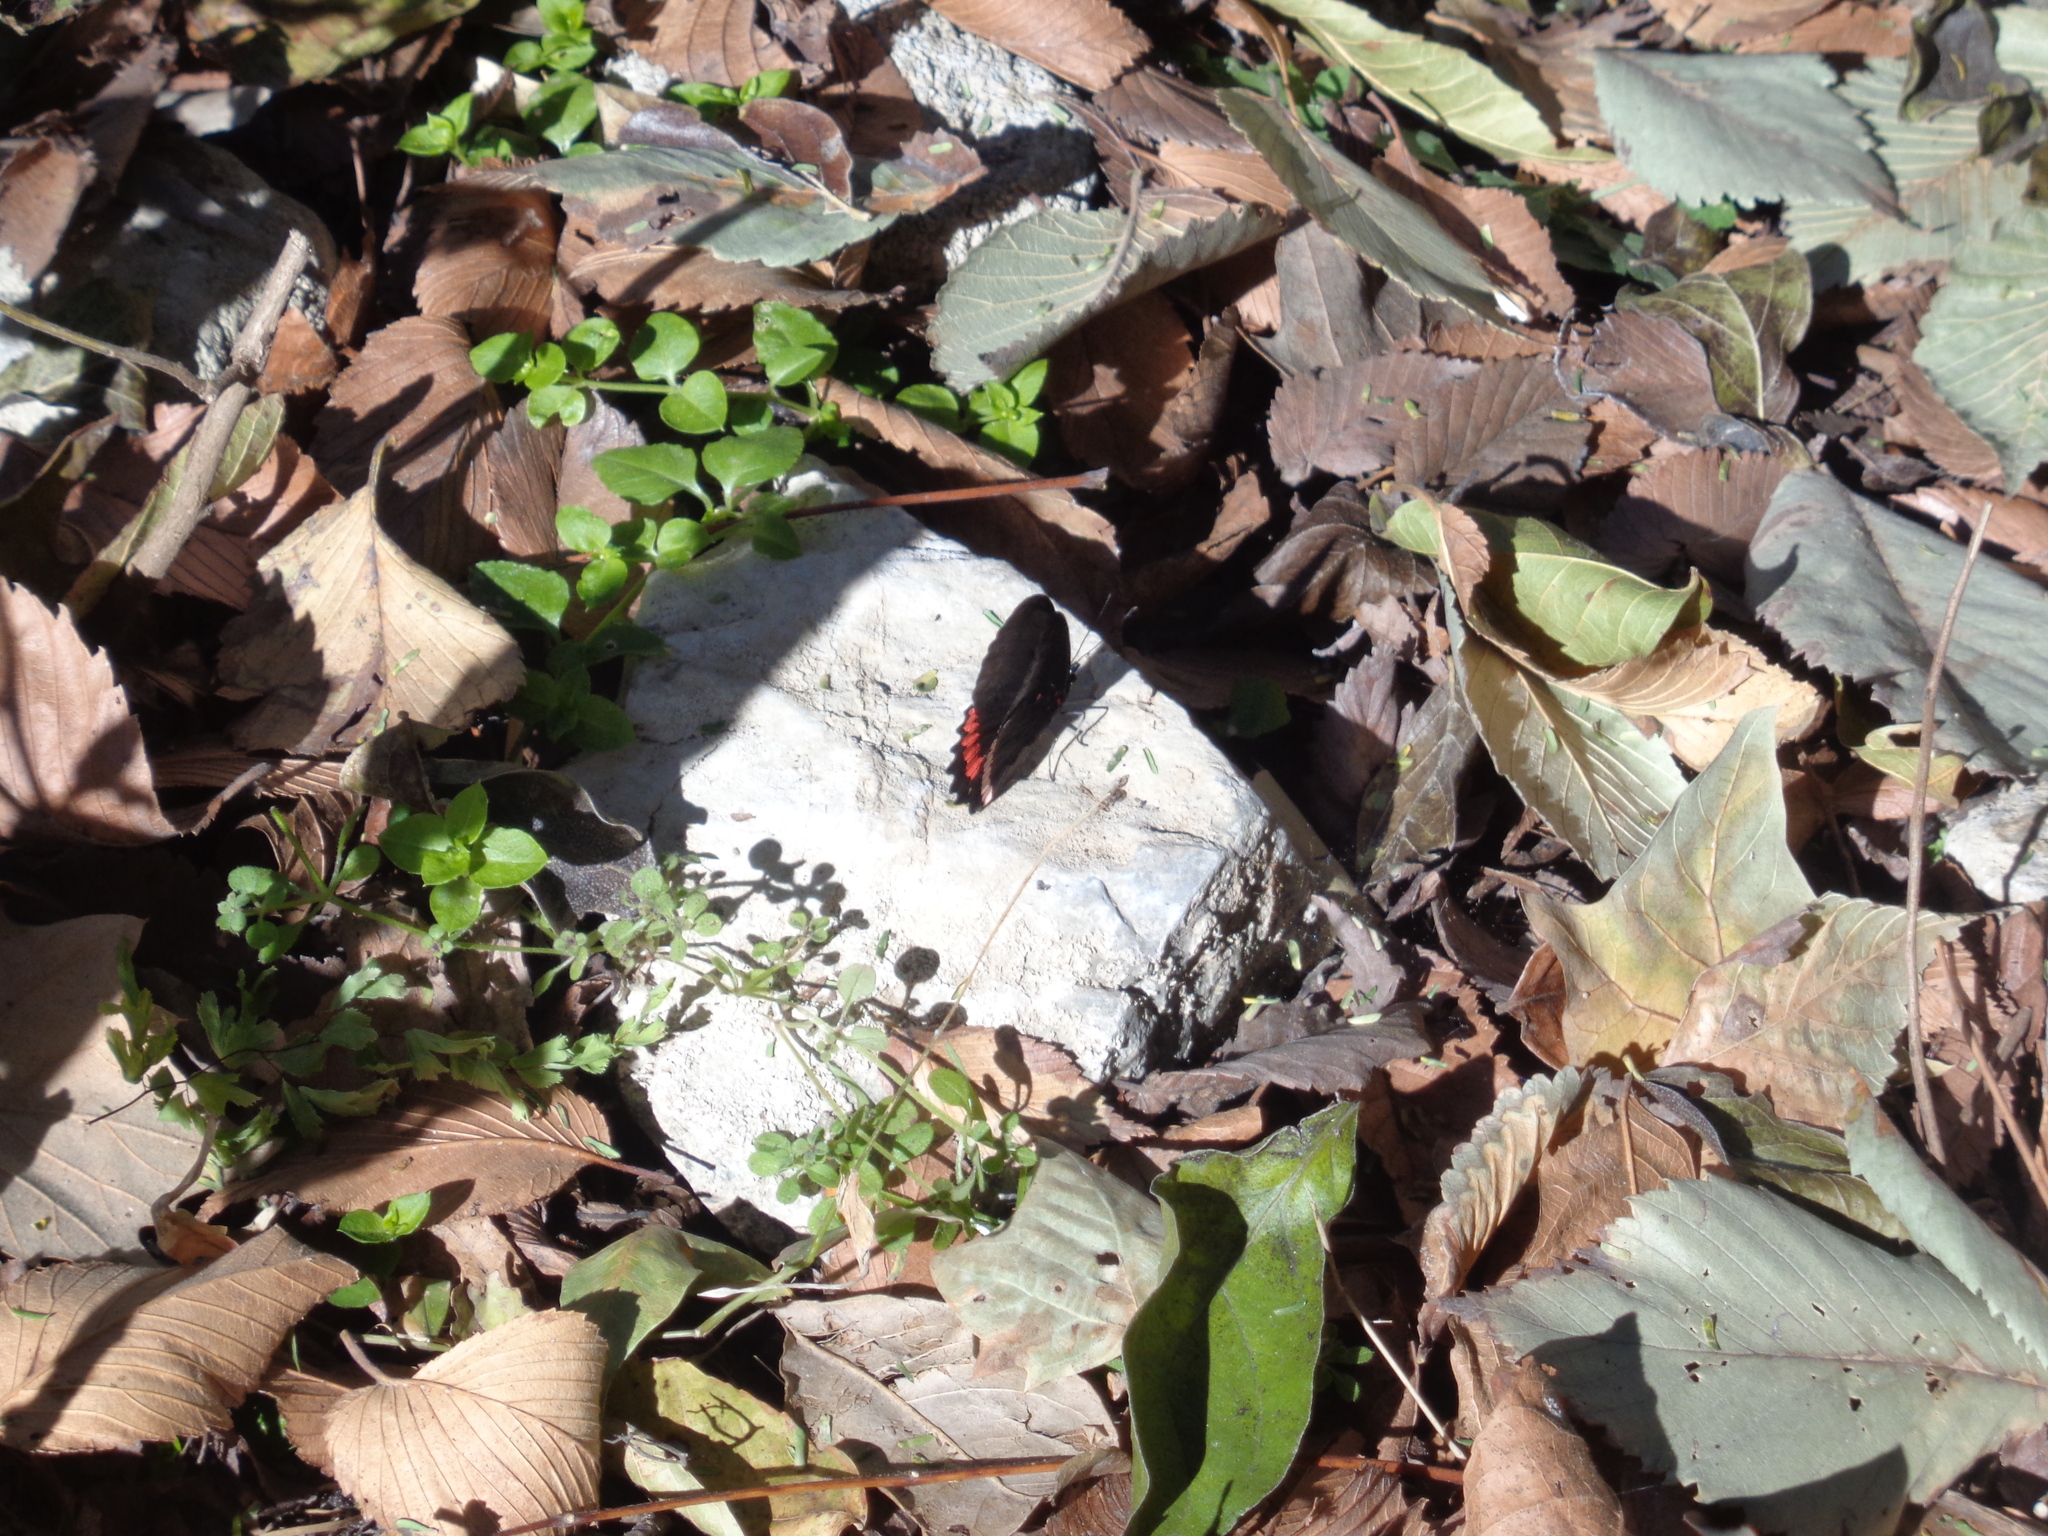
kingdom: Animalia
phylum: Arthropoda
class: Insecta
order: Lepidoptera
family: Nymphalidae
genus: Biblis
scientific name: Biblis aganisa
